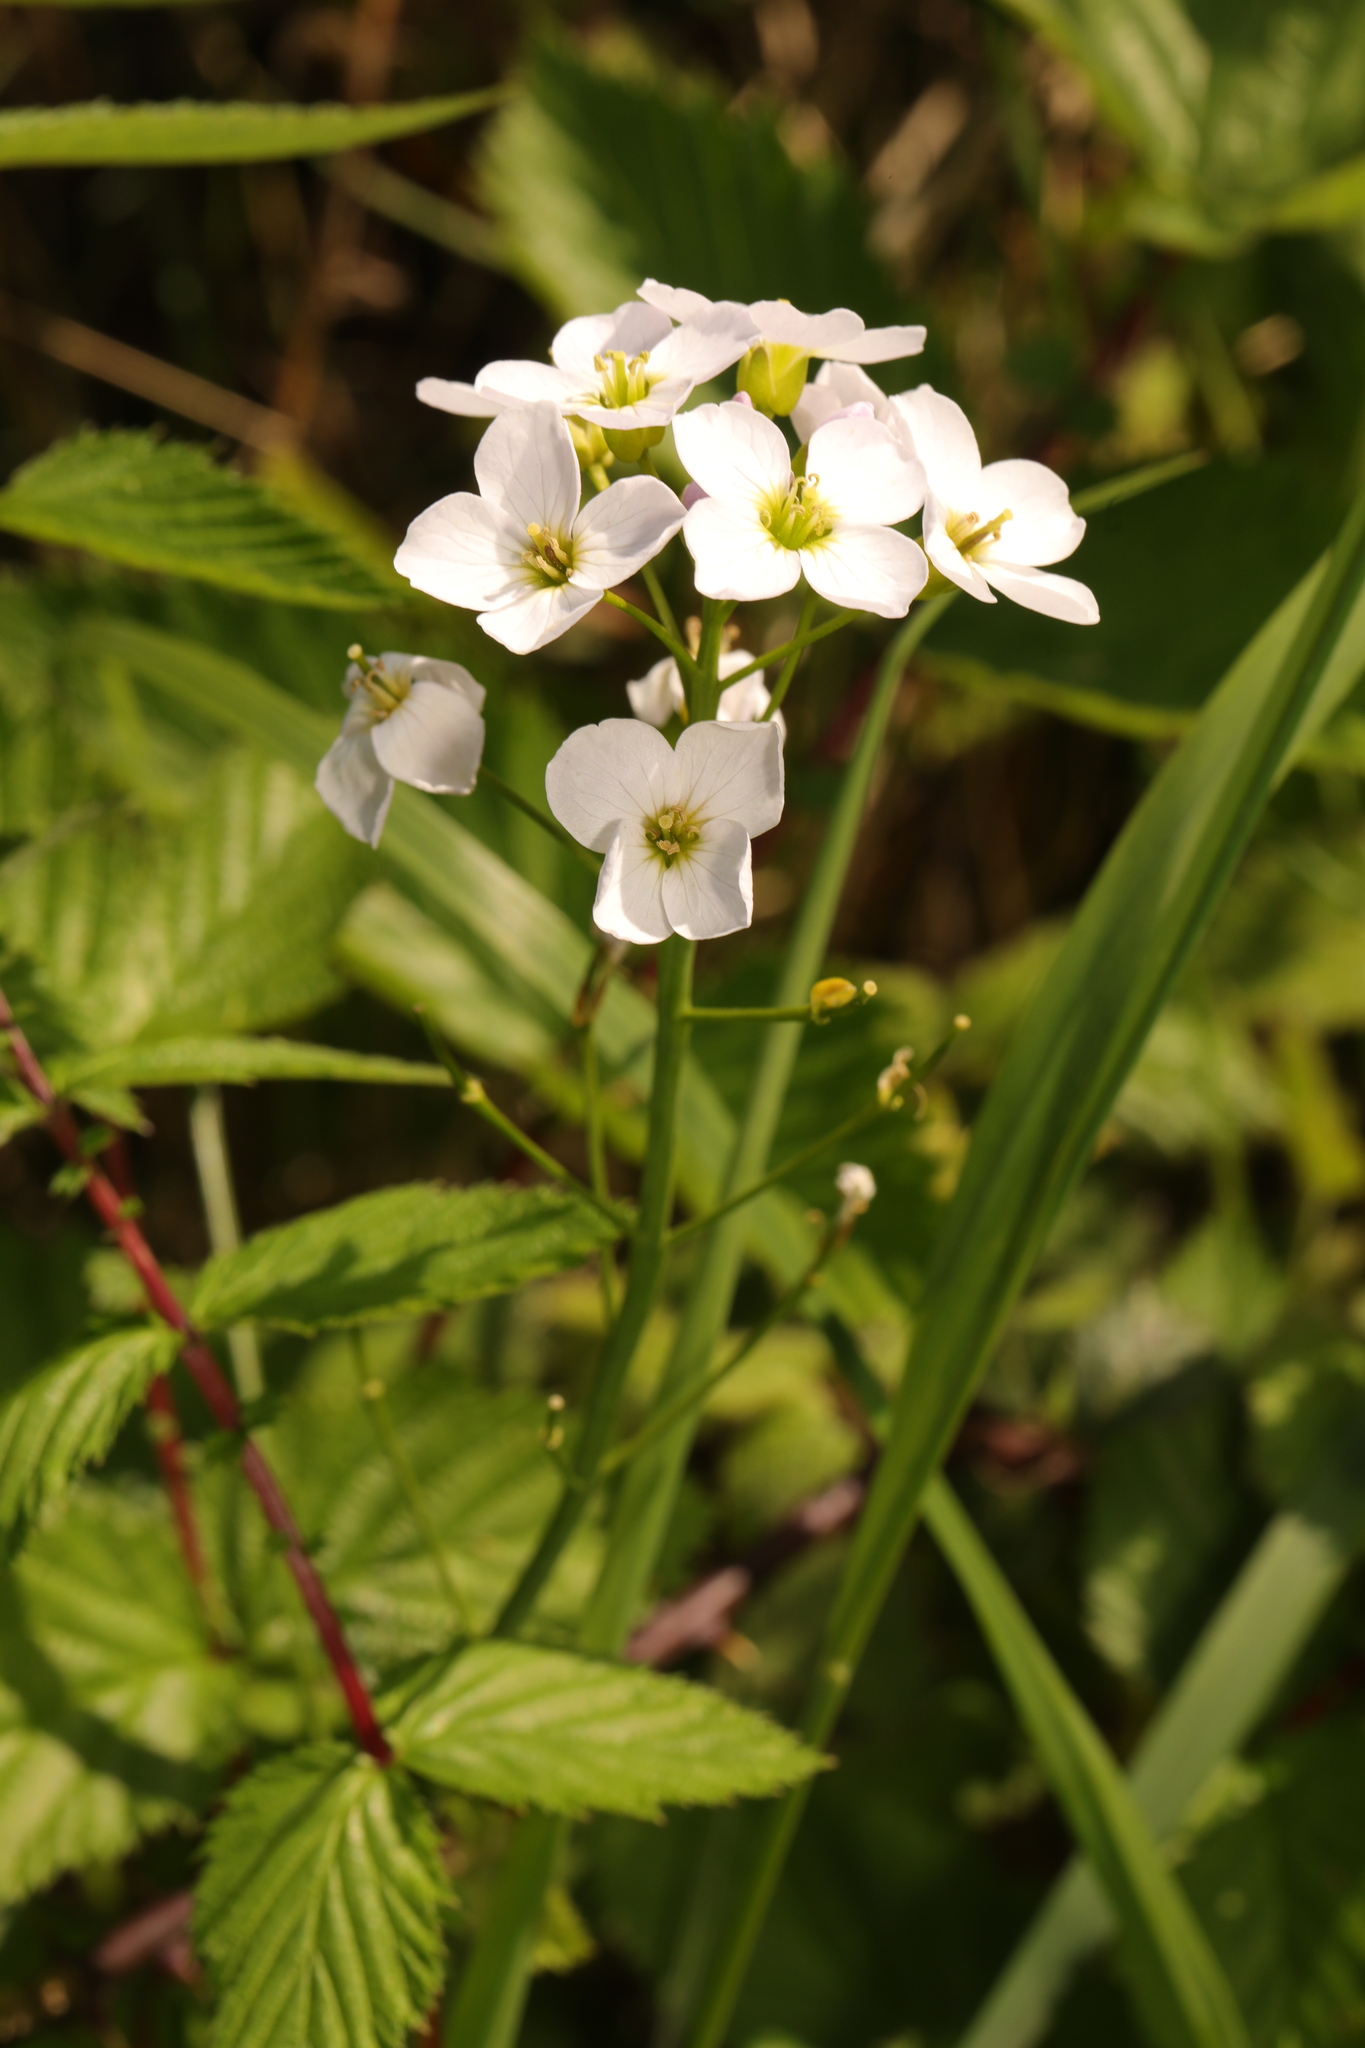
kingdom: Plantae
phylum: Tracheophyta
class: Magnoliopsida
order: Brassicales
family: Brassicaceae
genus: Cardamine
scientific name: Cardamine pratensis
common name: Cuckoo flower
